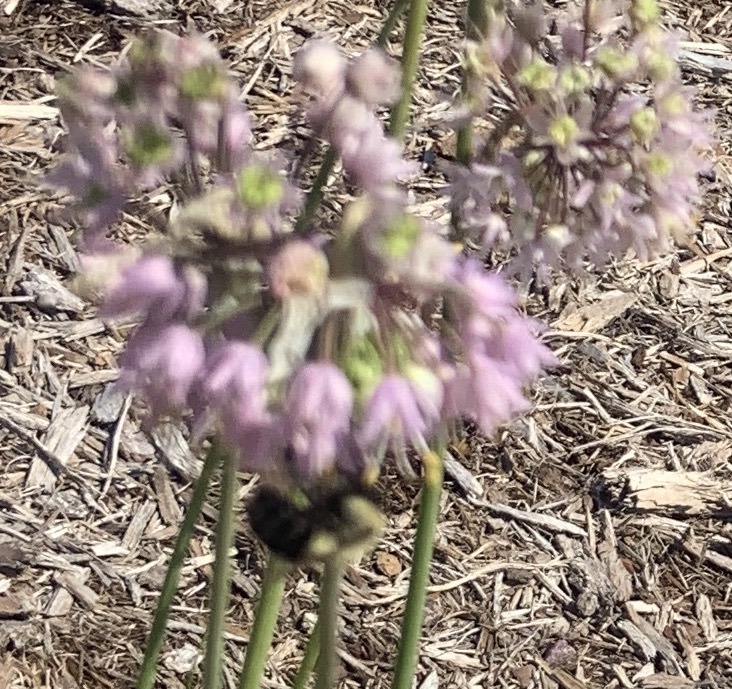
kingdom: Animalia
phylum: Arthropoda
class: Insecta
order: Hymenoptera
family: Apidae
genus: Bombus
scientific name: Bombus impatiens
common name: Common eastern bumble bee
